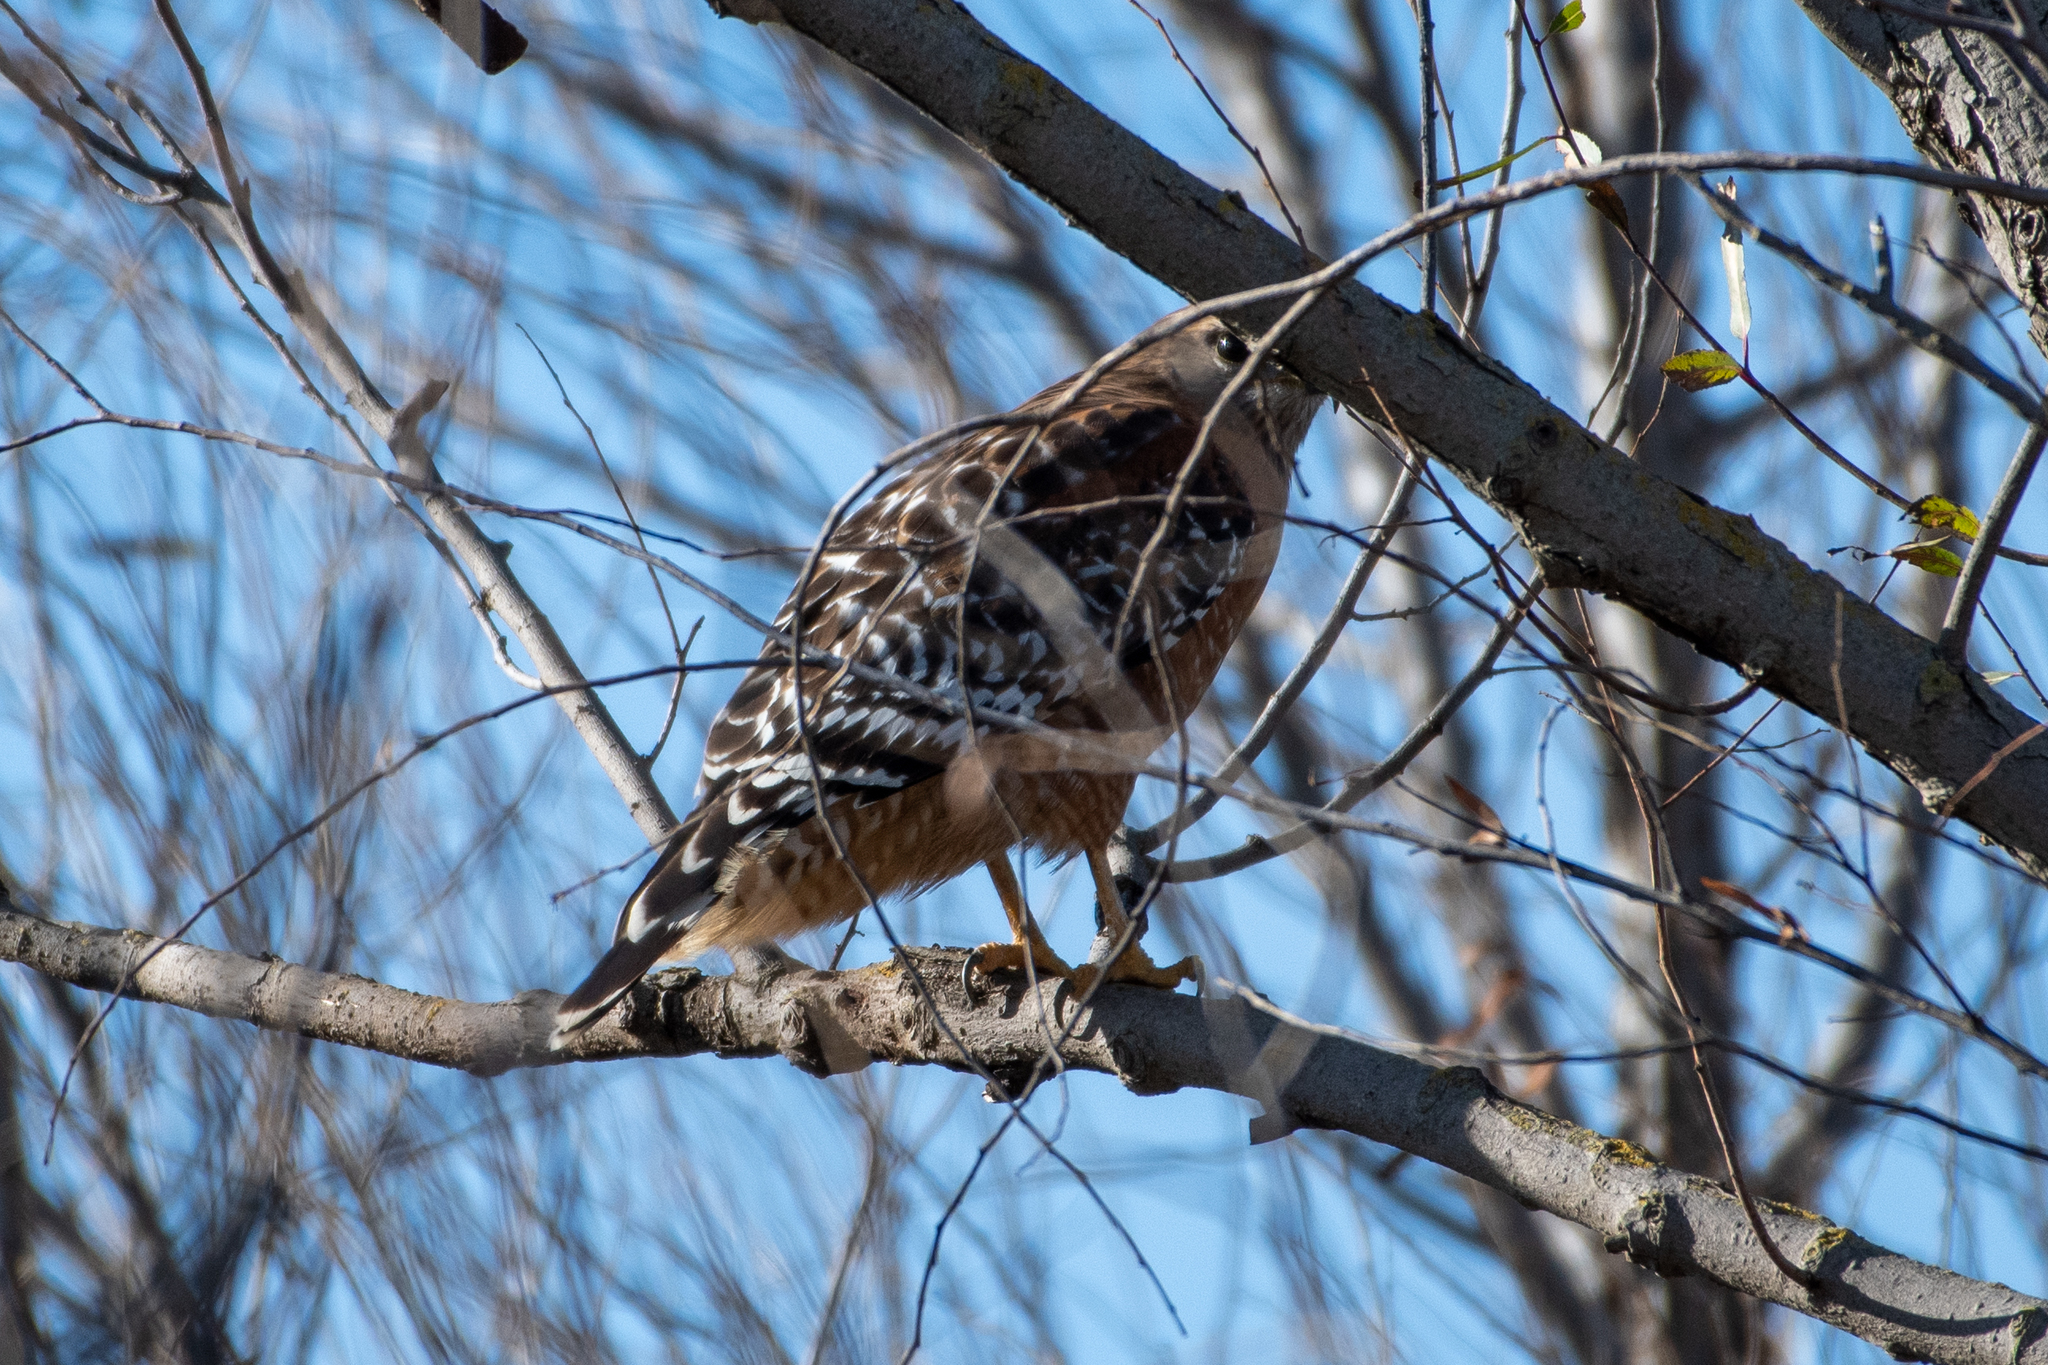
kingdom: Animalia
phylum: Chordata
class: Aves
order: Accipitriformes
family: Accipitridae
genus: Buteo
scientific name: Buteo lineatus
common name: Red-shouldered hawk
